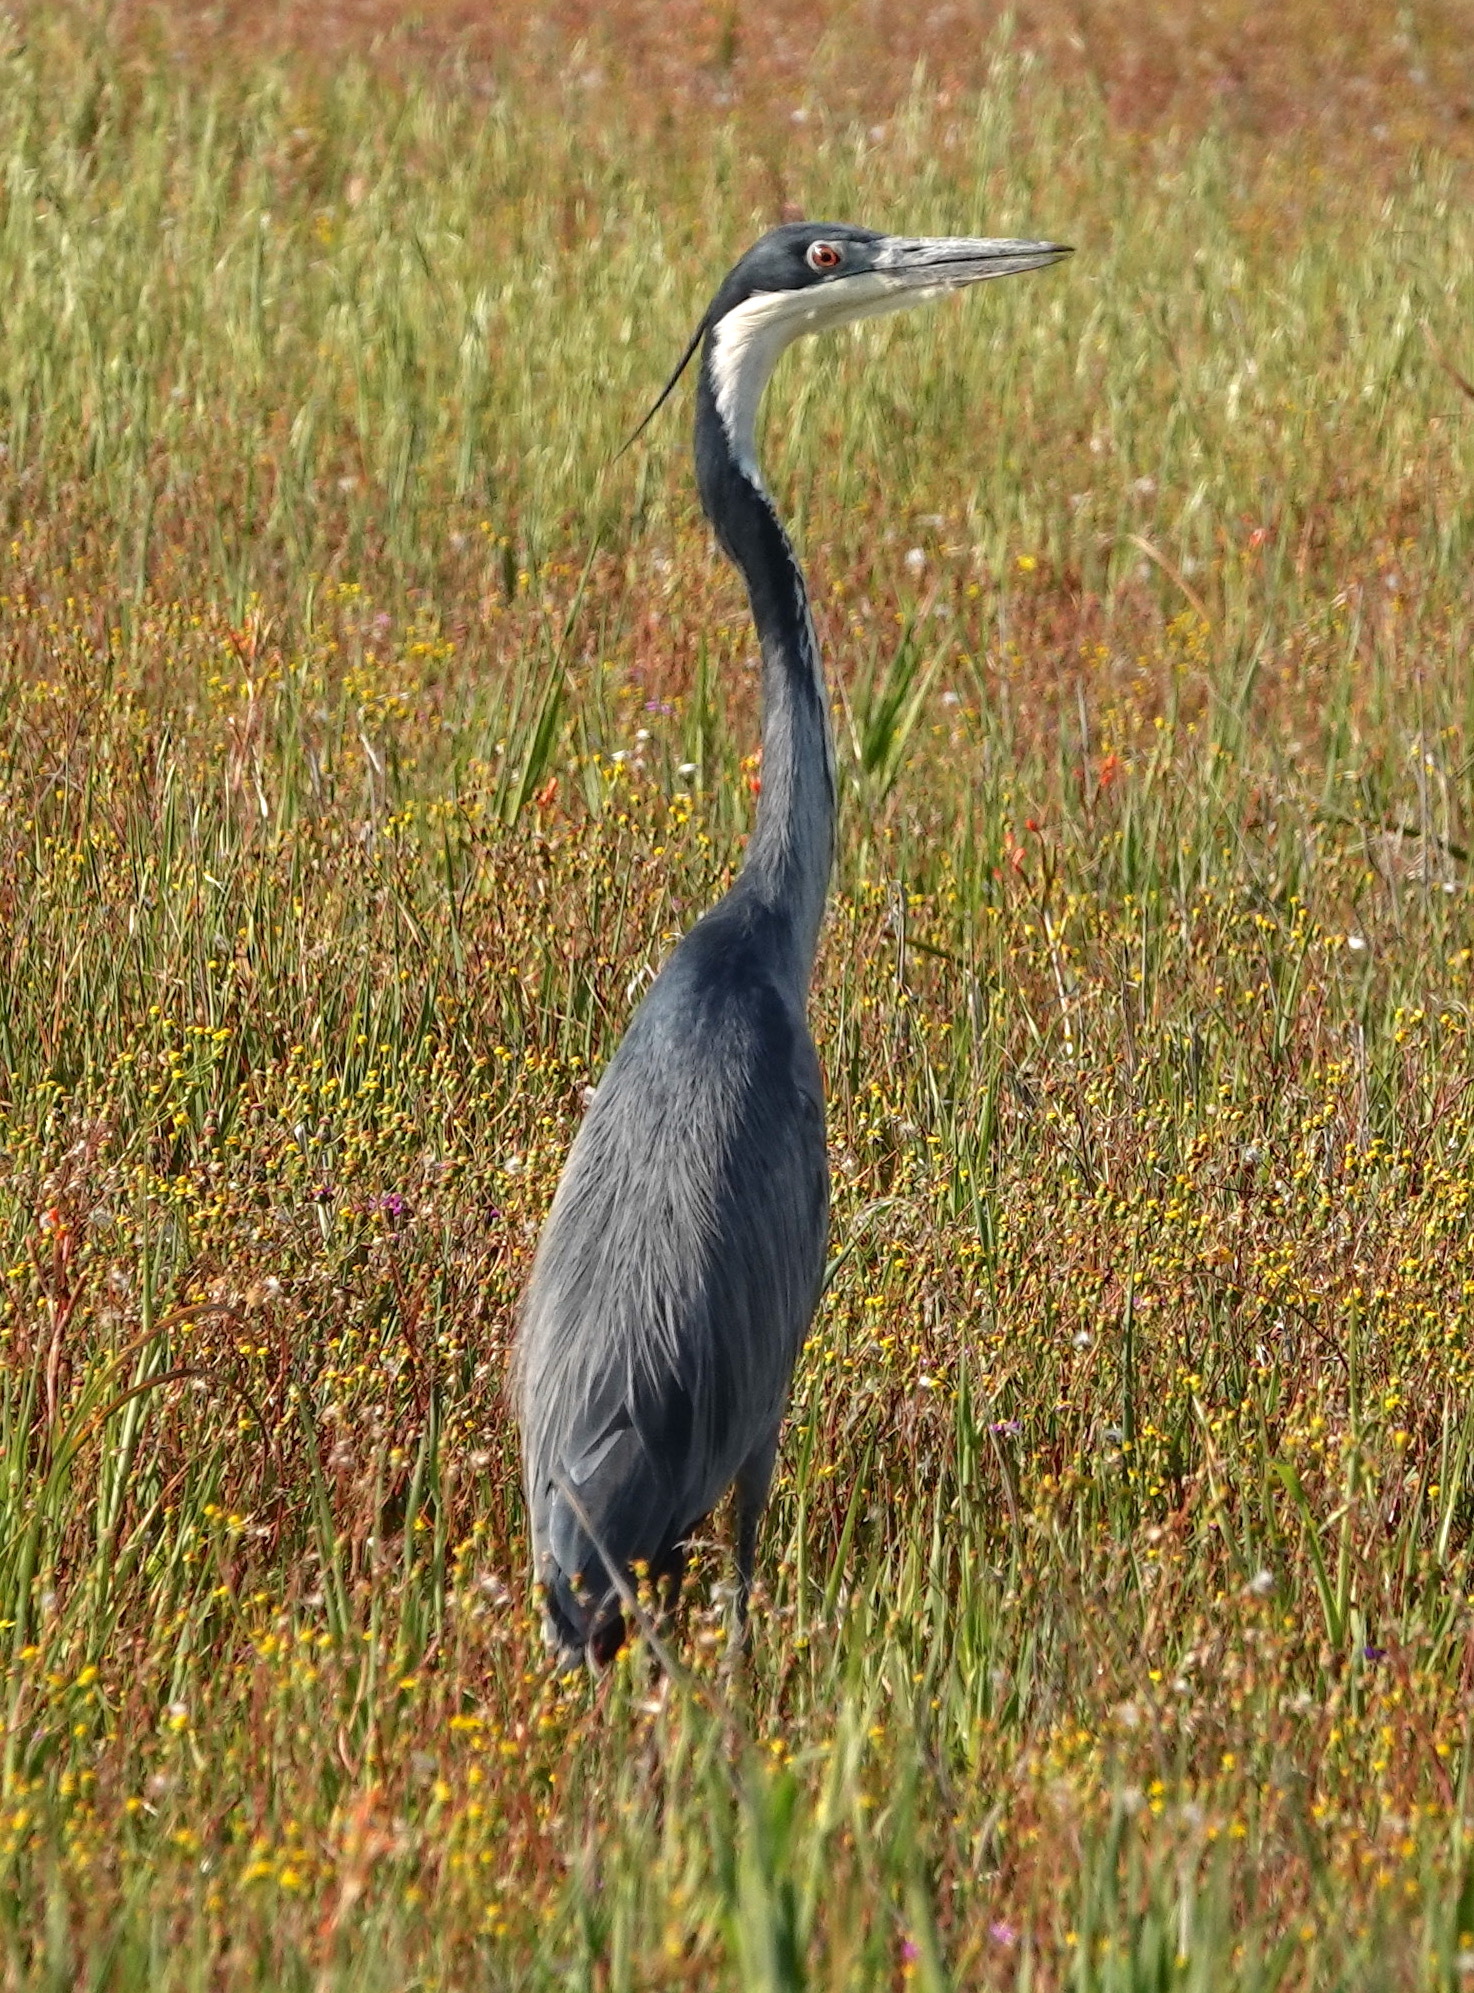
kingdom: Animalia
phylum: Chordata
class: Aves
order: Pelecaniformes
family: Ardeidae
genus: Ardea
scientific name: Ardea melanocephala
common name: Black-headed heron
